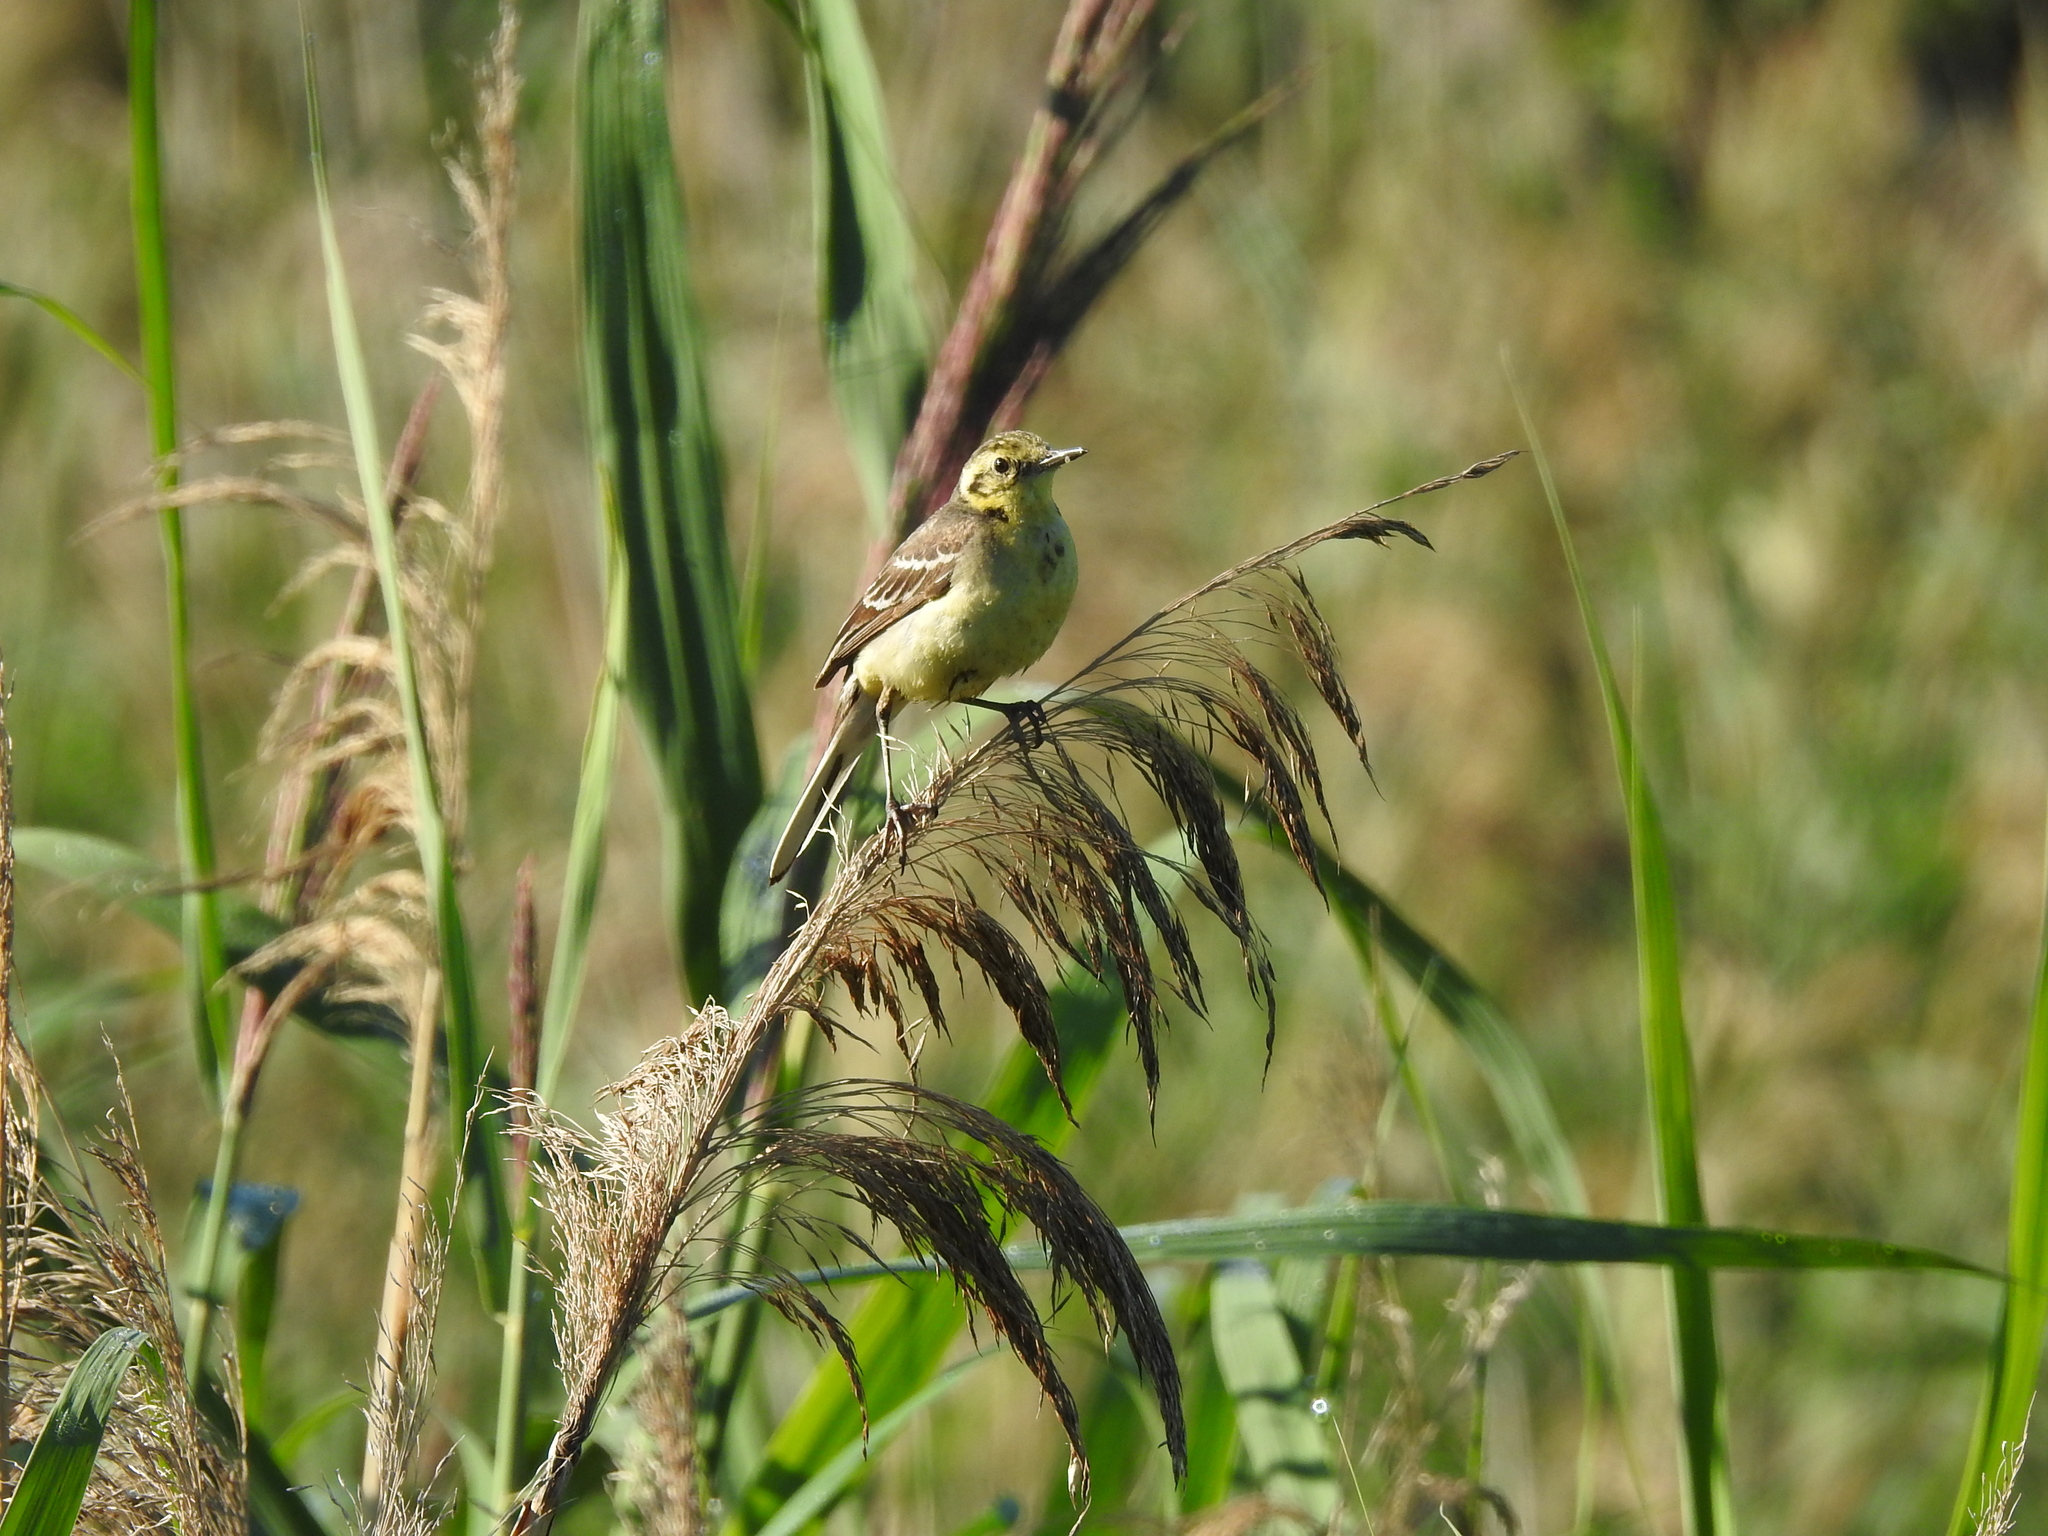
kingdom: Animalia
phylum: Chordata
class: Aves
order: Passeriformes
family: Motacillidae
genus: Motacilla
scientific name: Motacilla citreola
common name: Citrine wagtail
